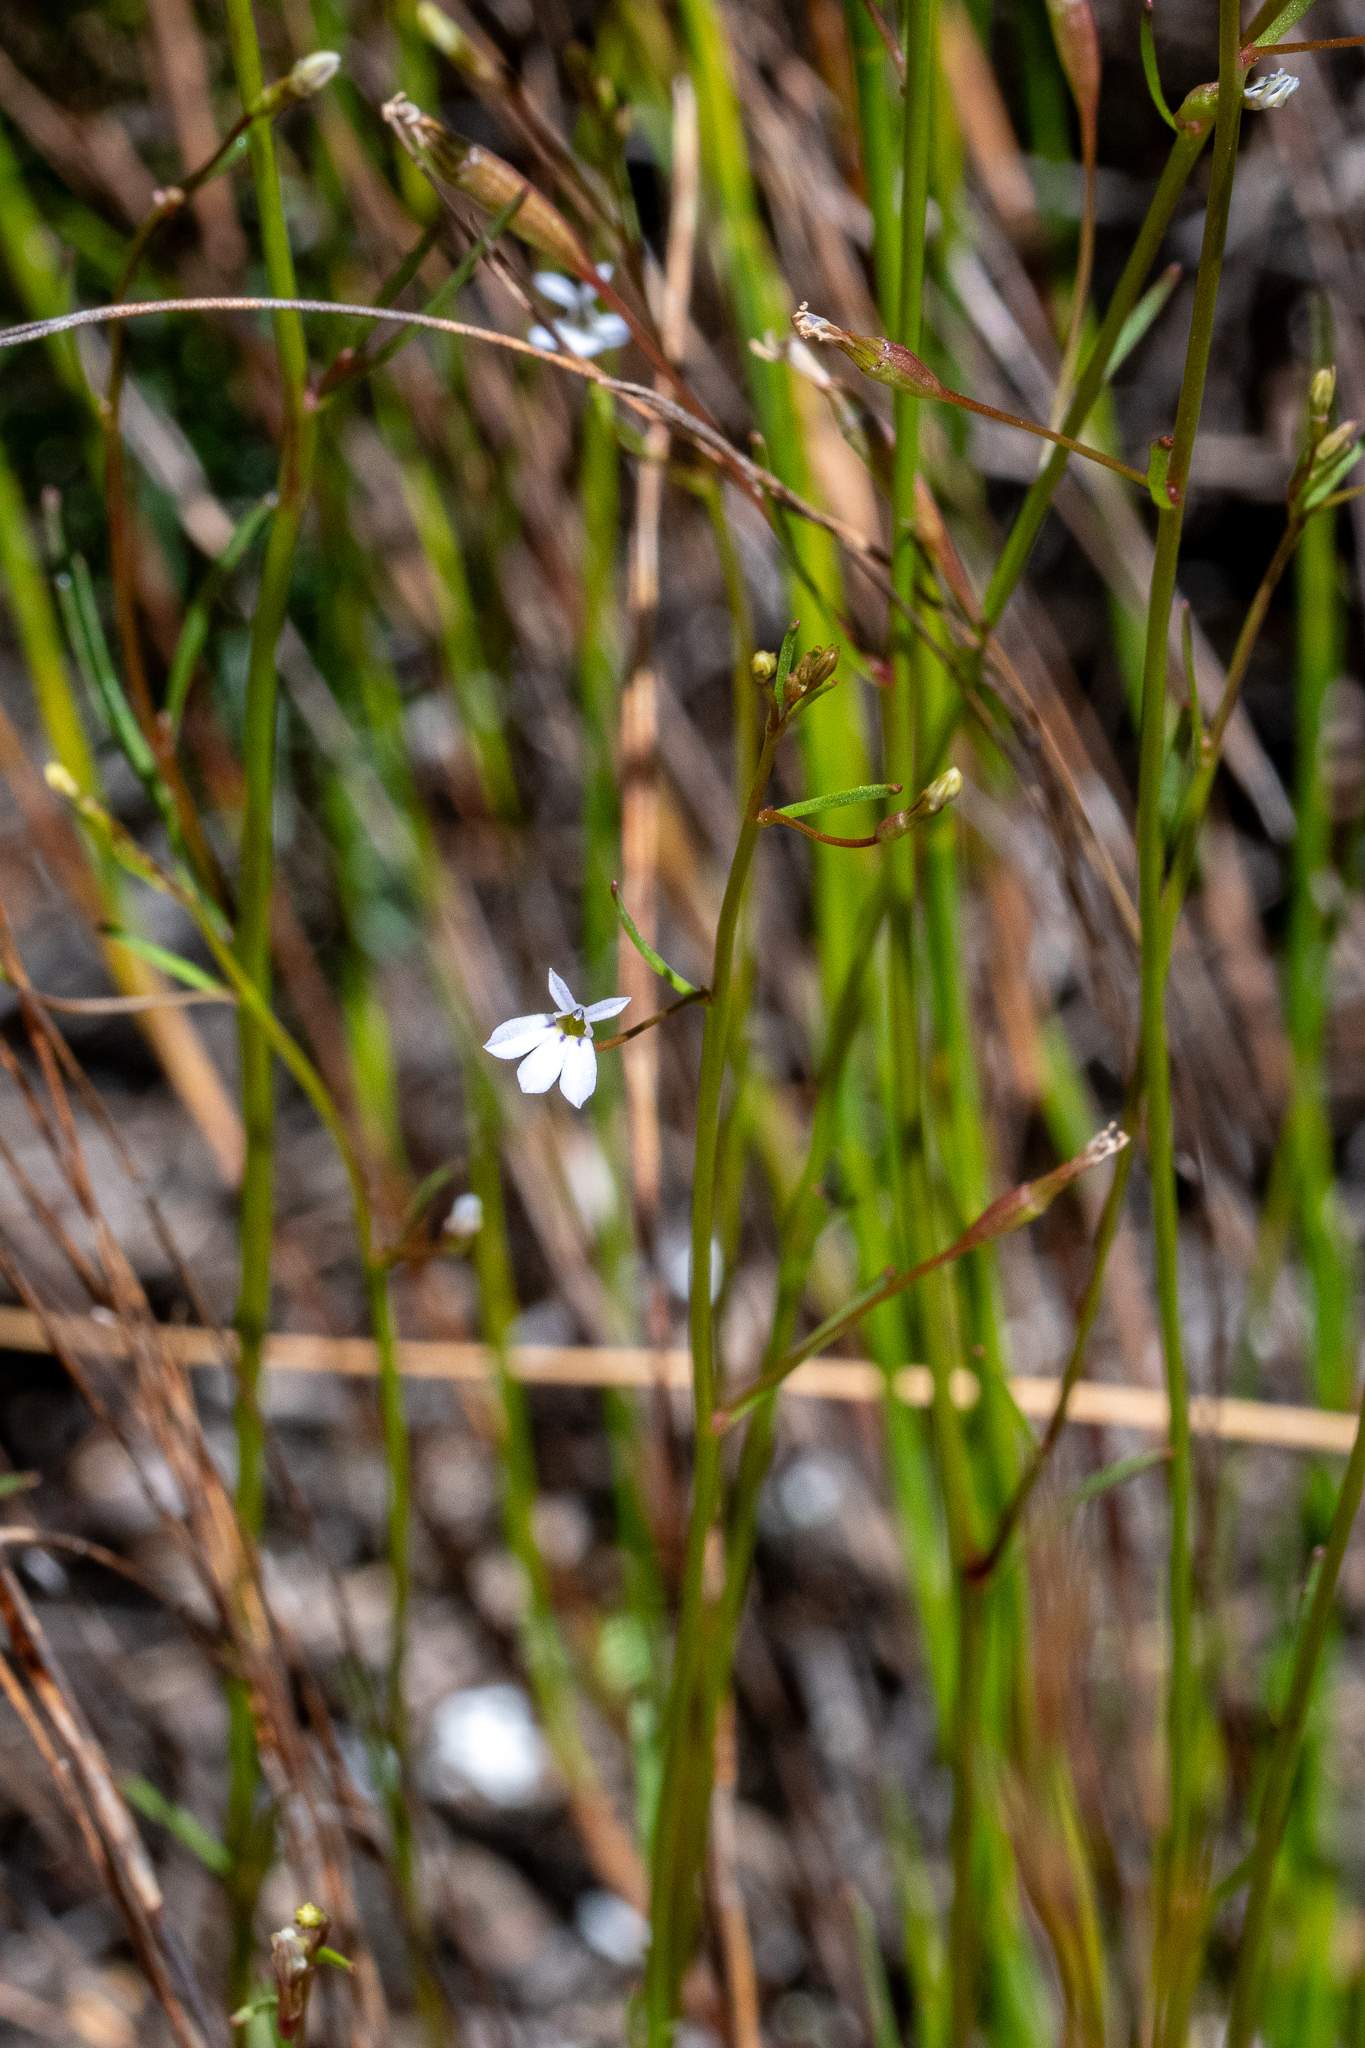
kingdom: Plantae
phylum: Tracheophyta
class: Magnoliopsida
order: Asterales
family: Campanulaceae
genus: Wimmerella
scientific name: Wimmerella arabidea
